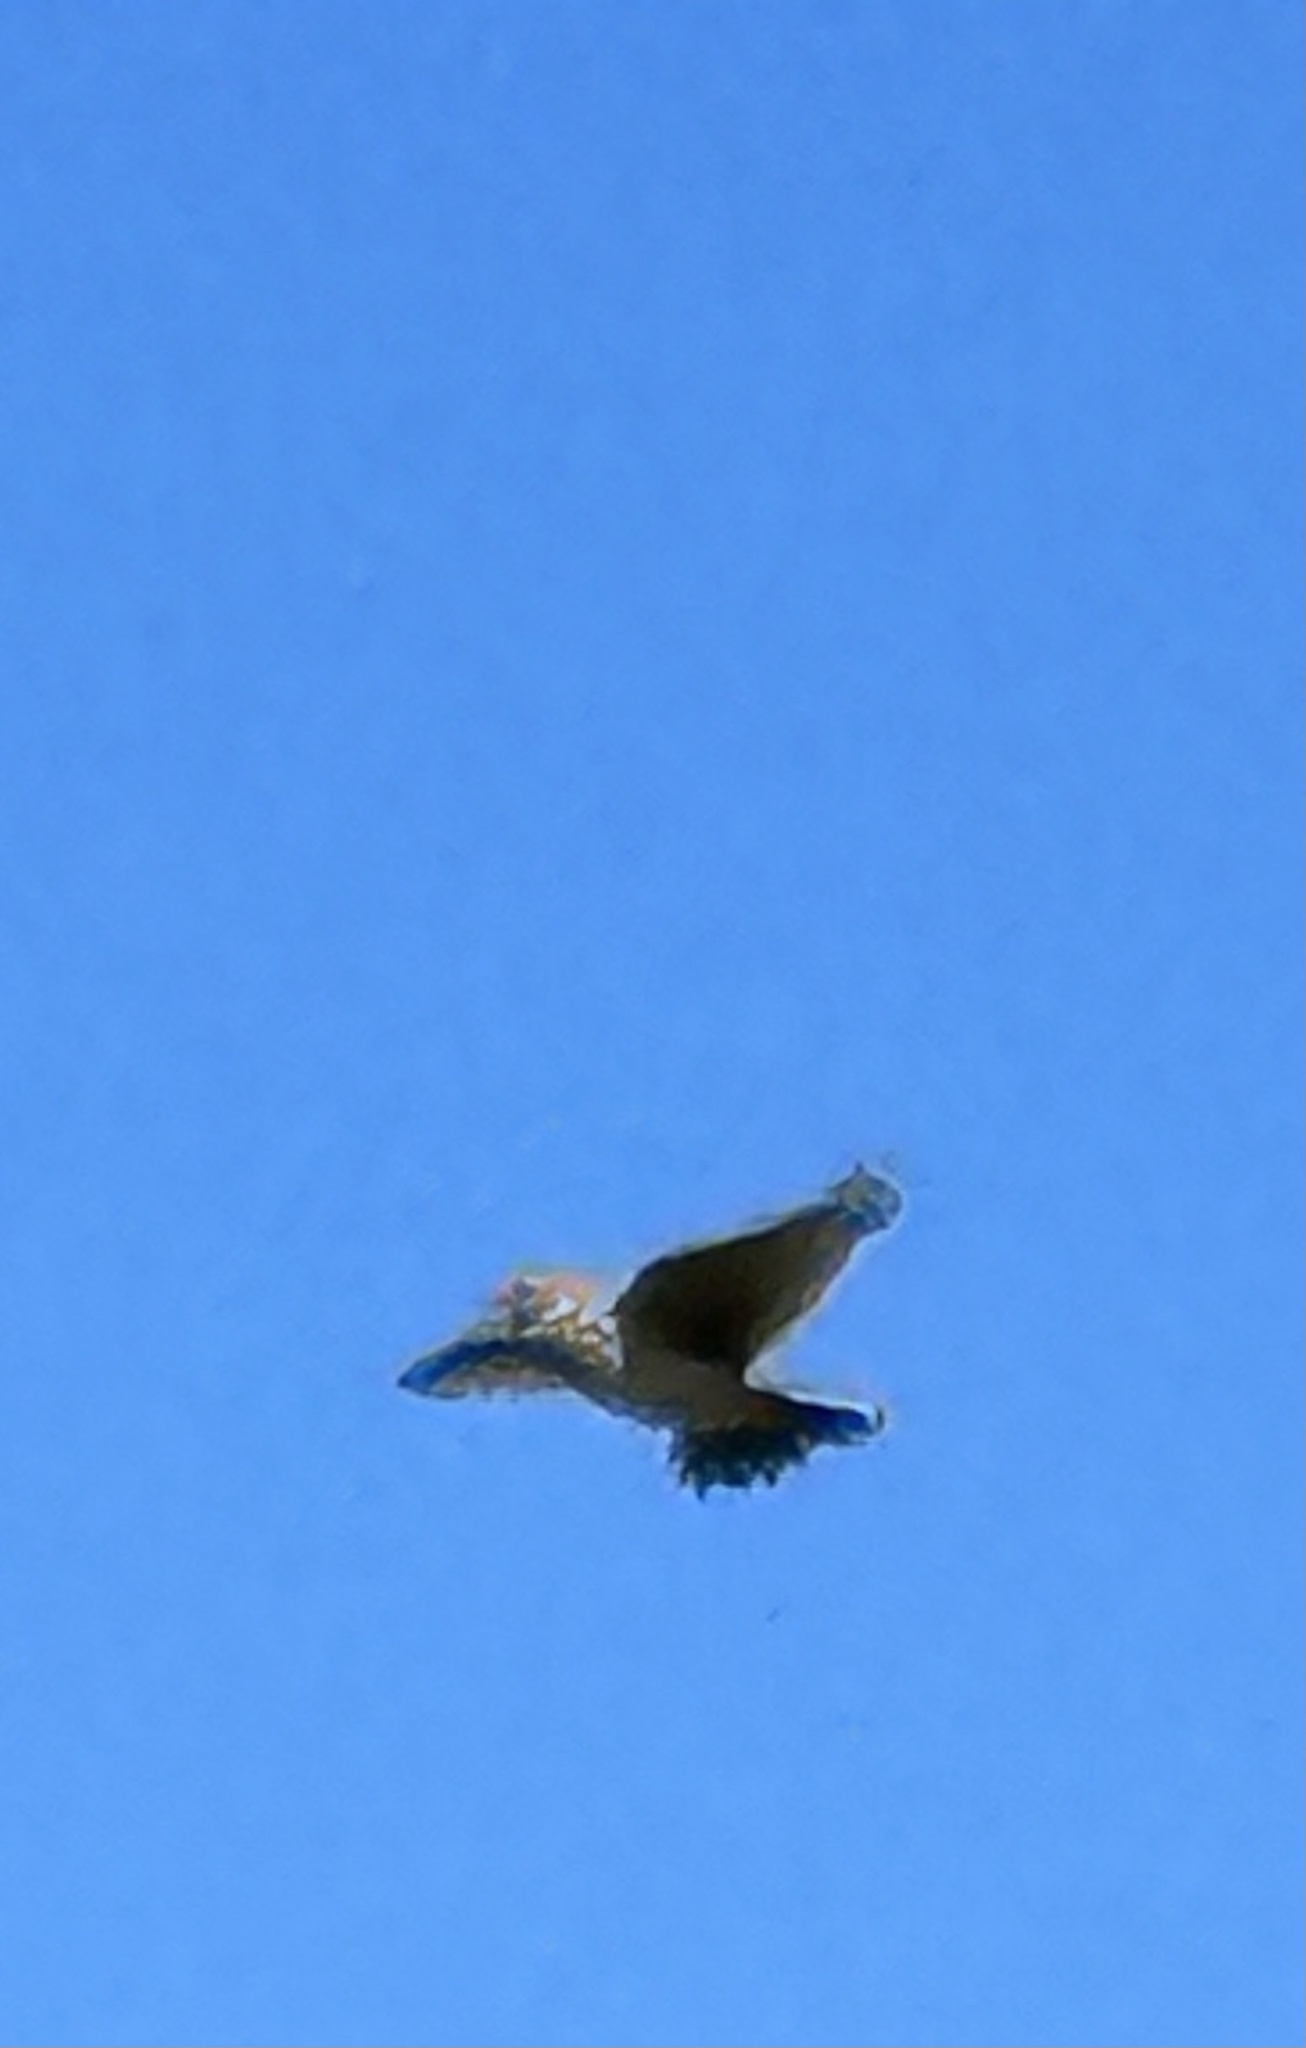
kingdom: Animalia
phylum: Chordata
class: Aves
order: Passeriformes
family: Alaudidae
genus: Alauda
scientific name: Alauda arvensis
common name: Eurasian skylark
